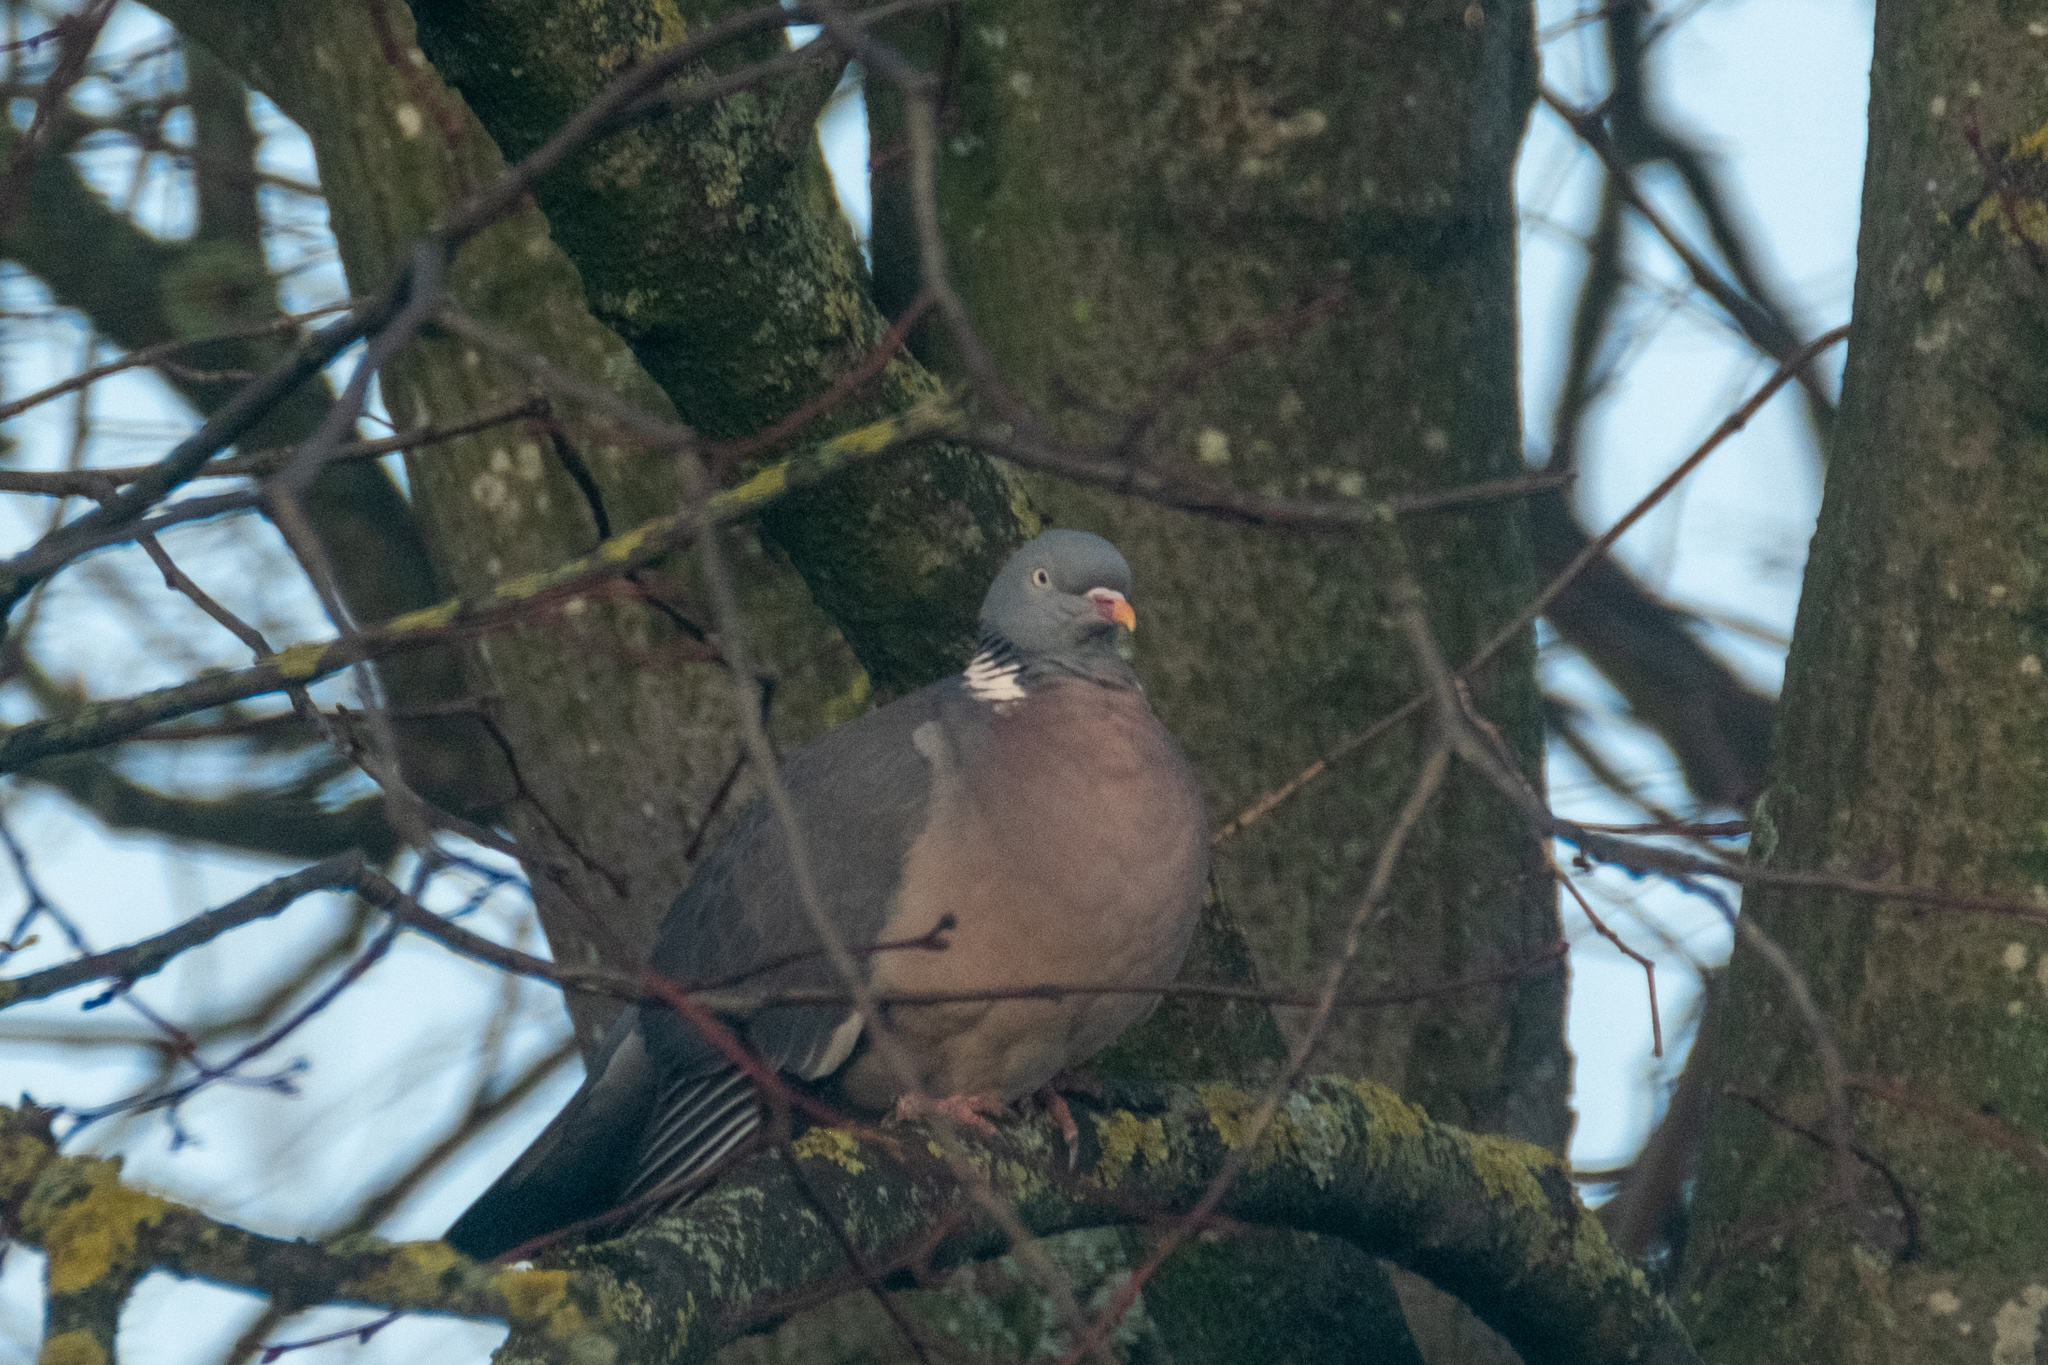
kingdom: Animalia
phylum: Chordata
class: Aves
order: Columbiformes
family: Columbidae
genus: Columba
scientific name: Columba palumbus
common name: Common wood pigeon
